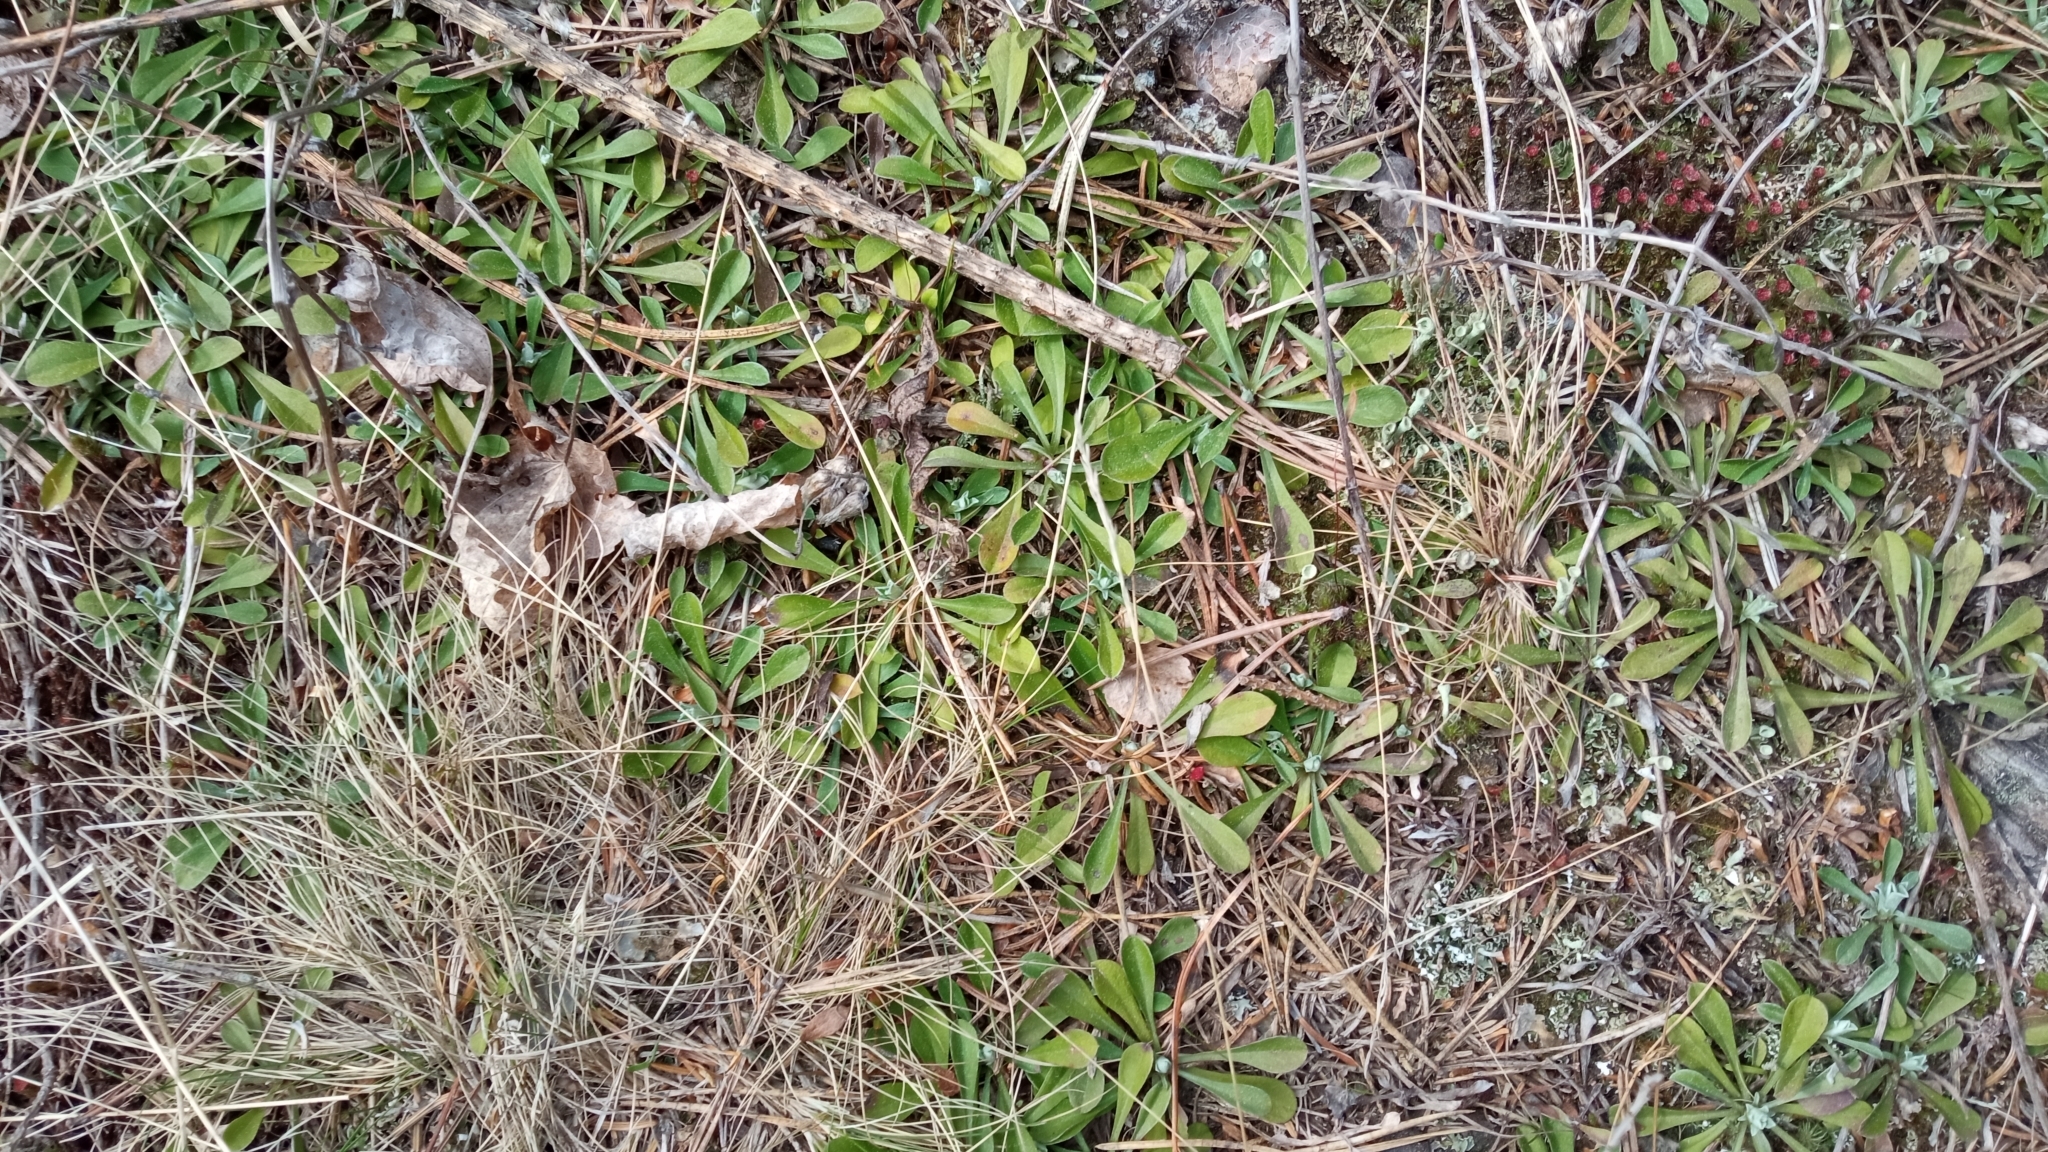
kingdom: Plantae
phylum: Tracheophyta
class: Magnoliopsida
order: Asterales
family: Asteraceae
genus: Antennaria
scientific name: Antennaria dioica
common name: Mountain everlasting
